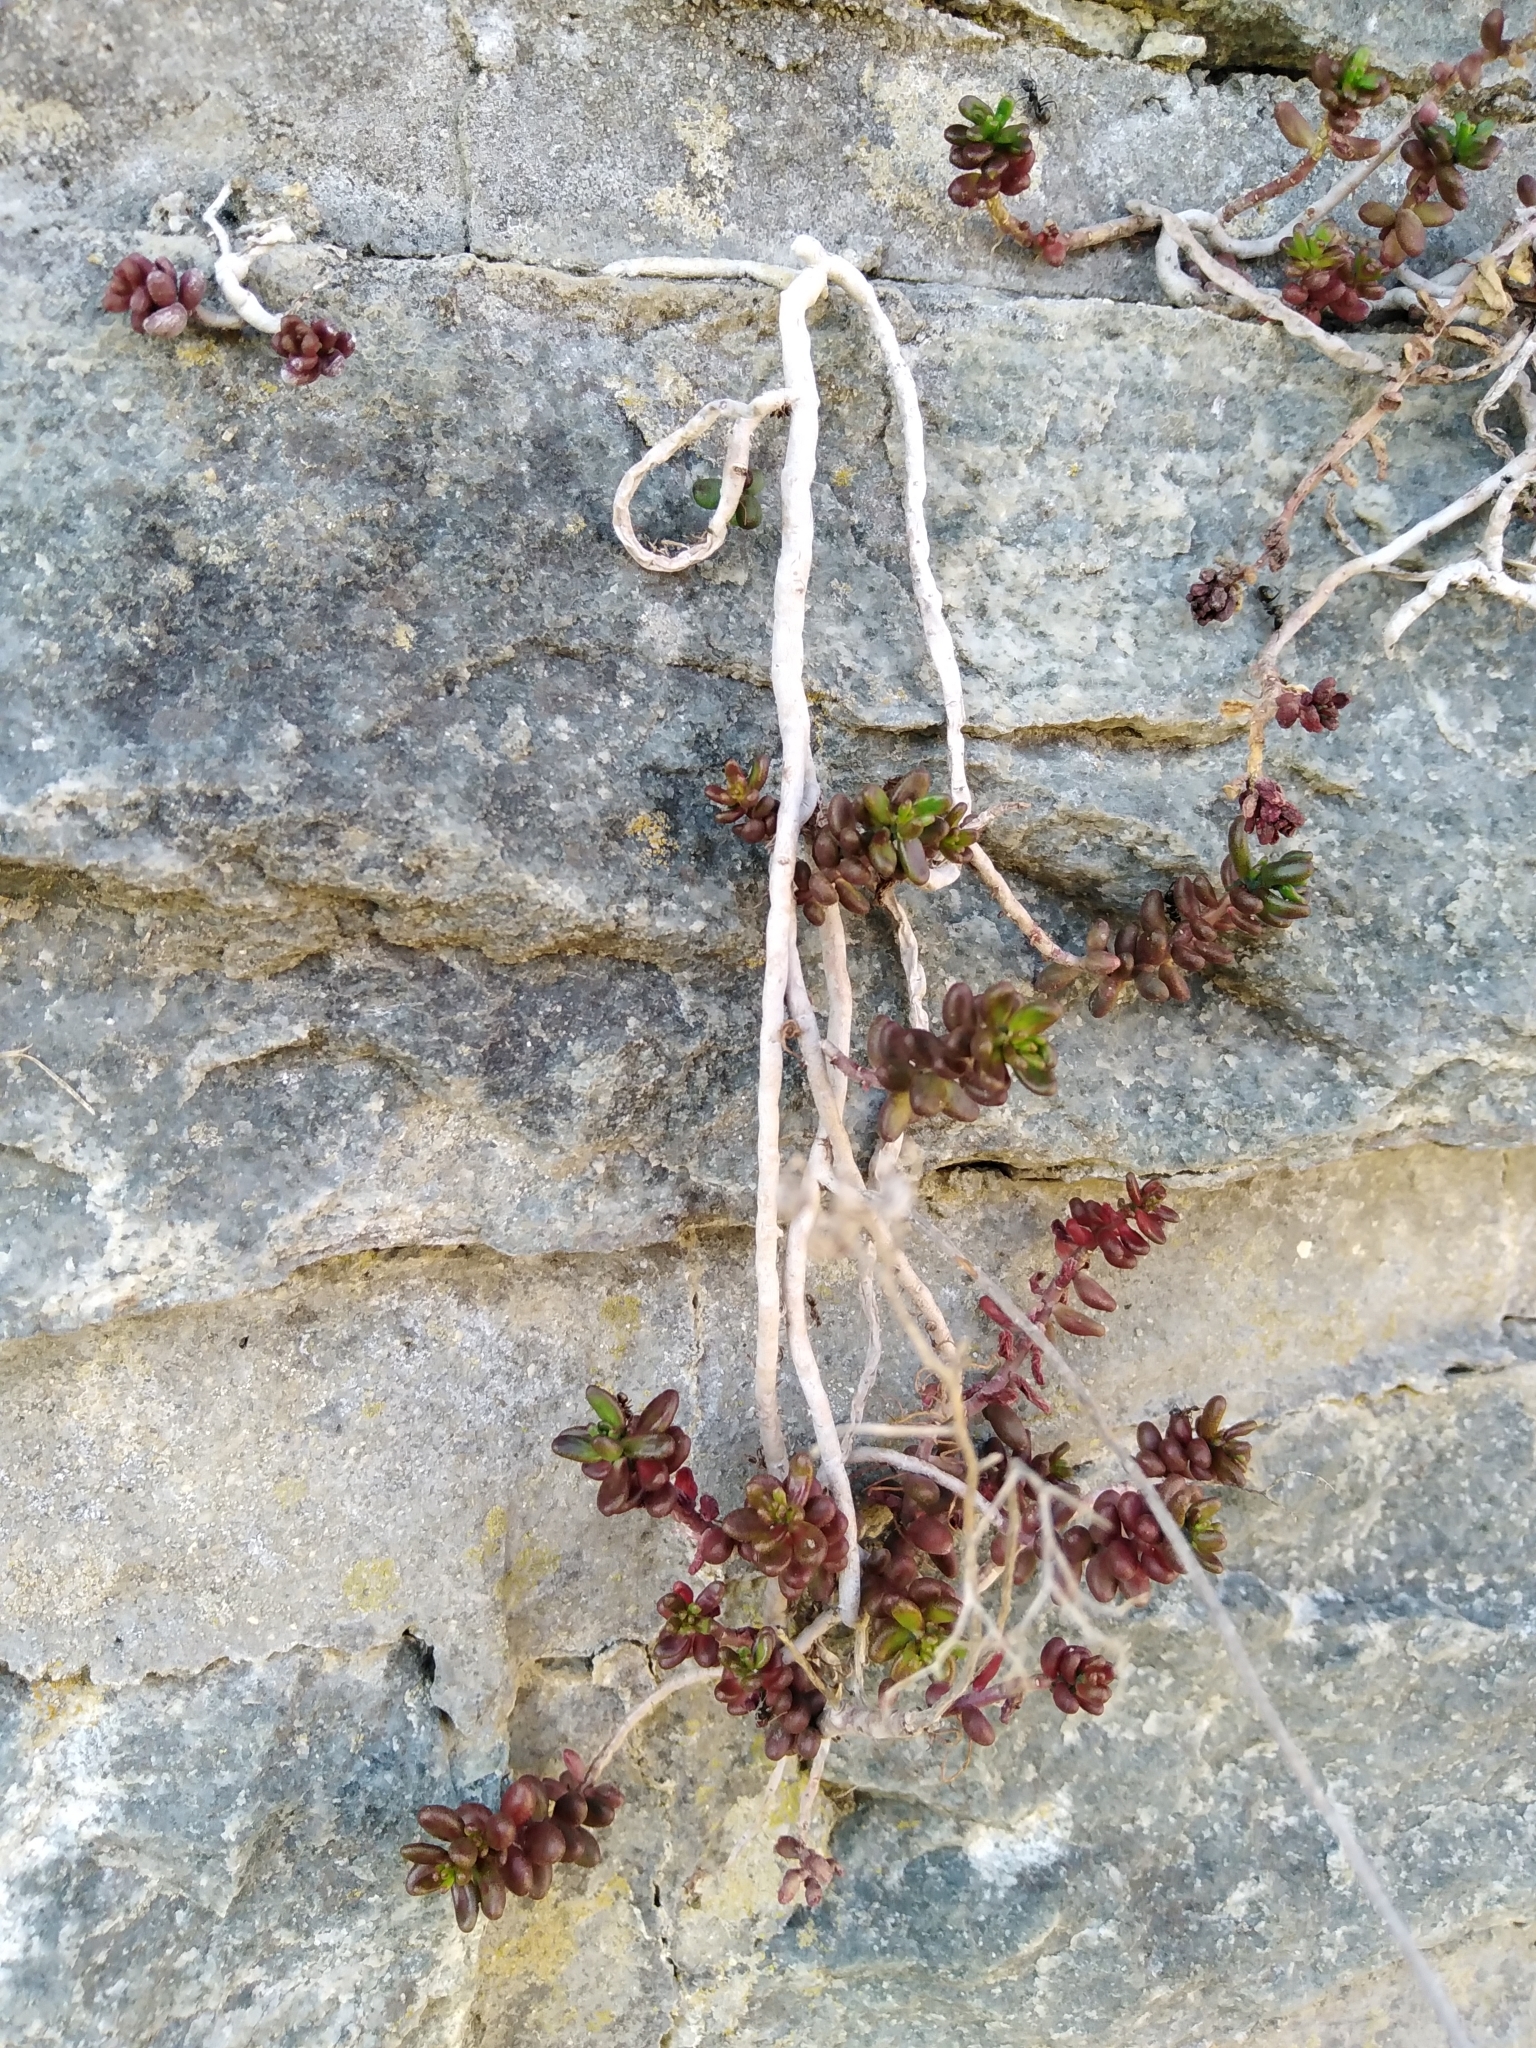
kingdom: Plantae
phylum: Tracheophyta
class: Magnoliopsida
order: Saxifragales
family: Crassulaceae
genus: Sedum
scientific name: Sedum album
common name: White stonecrop
